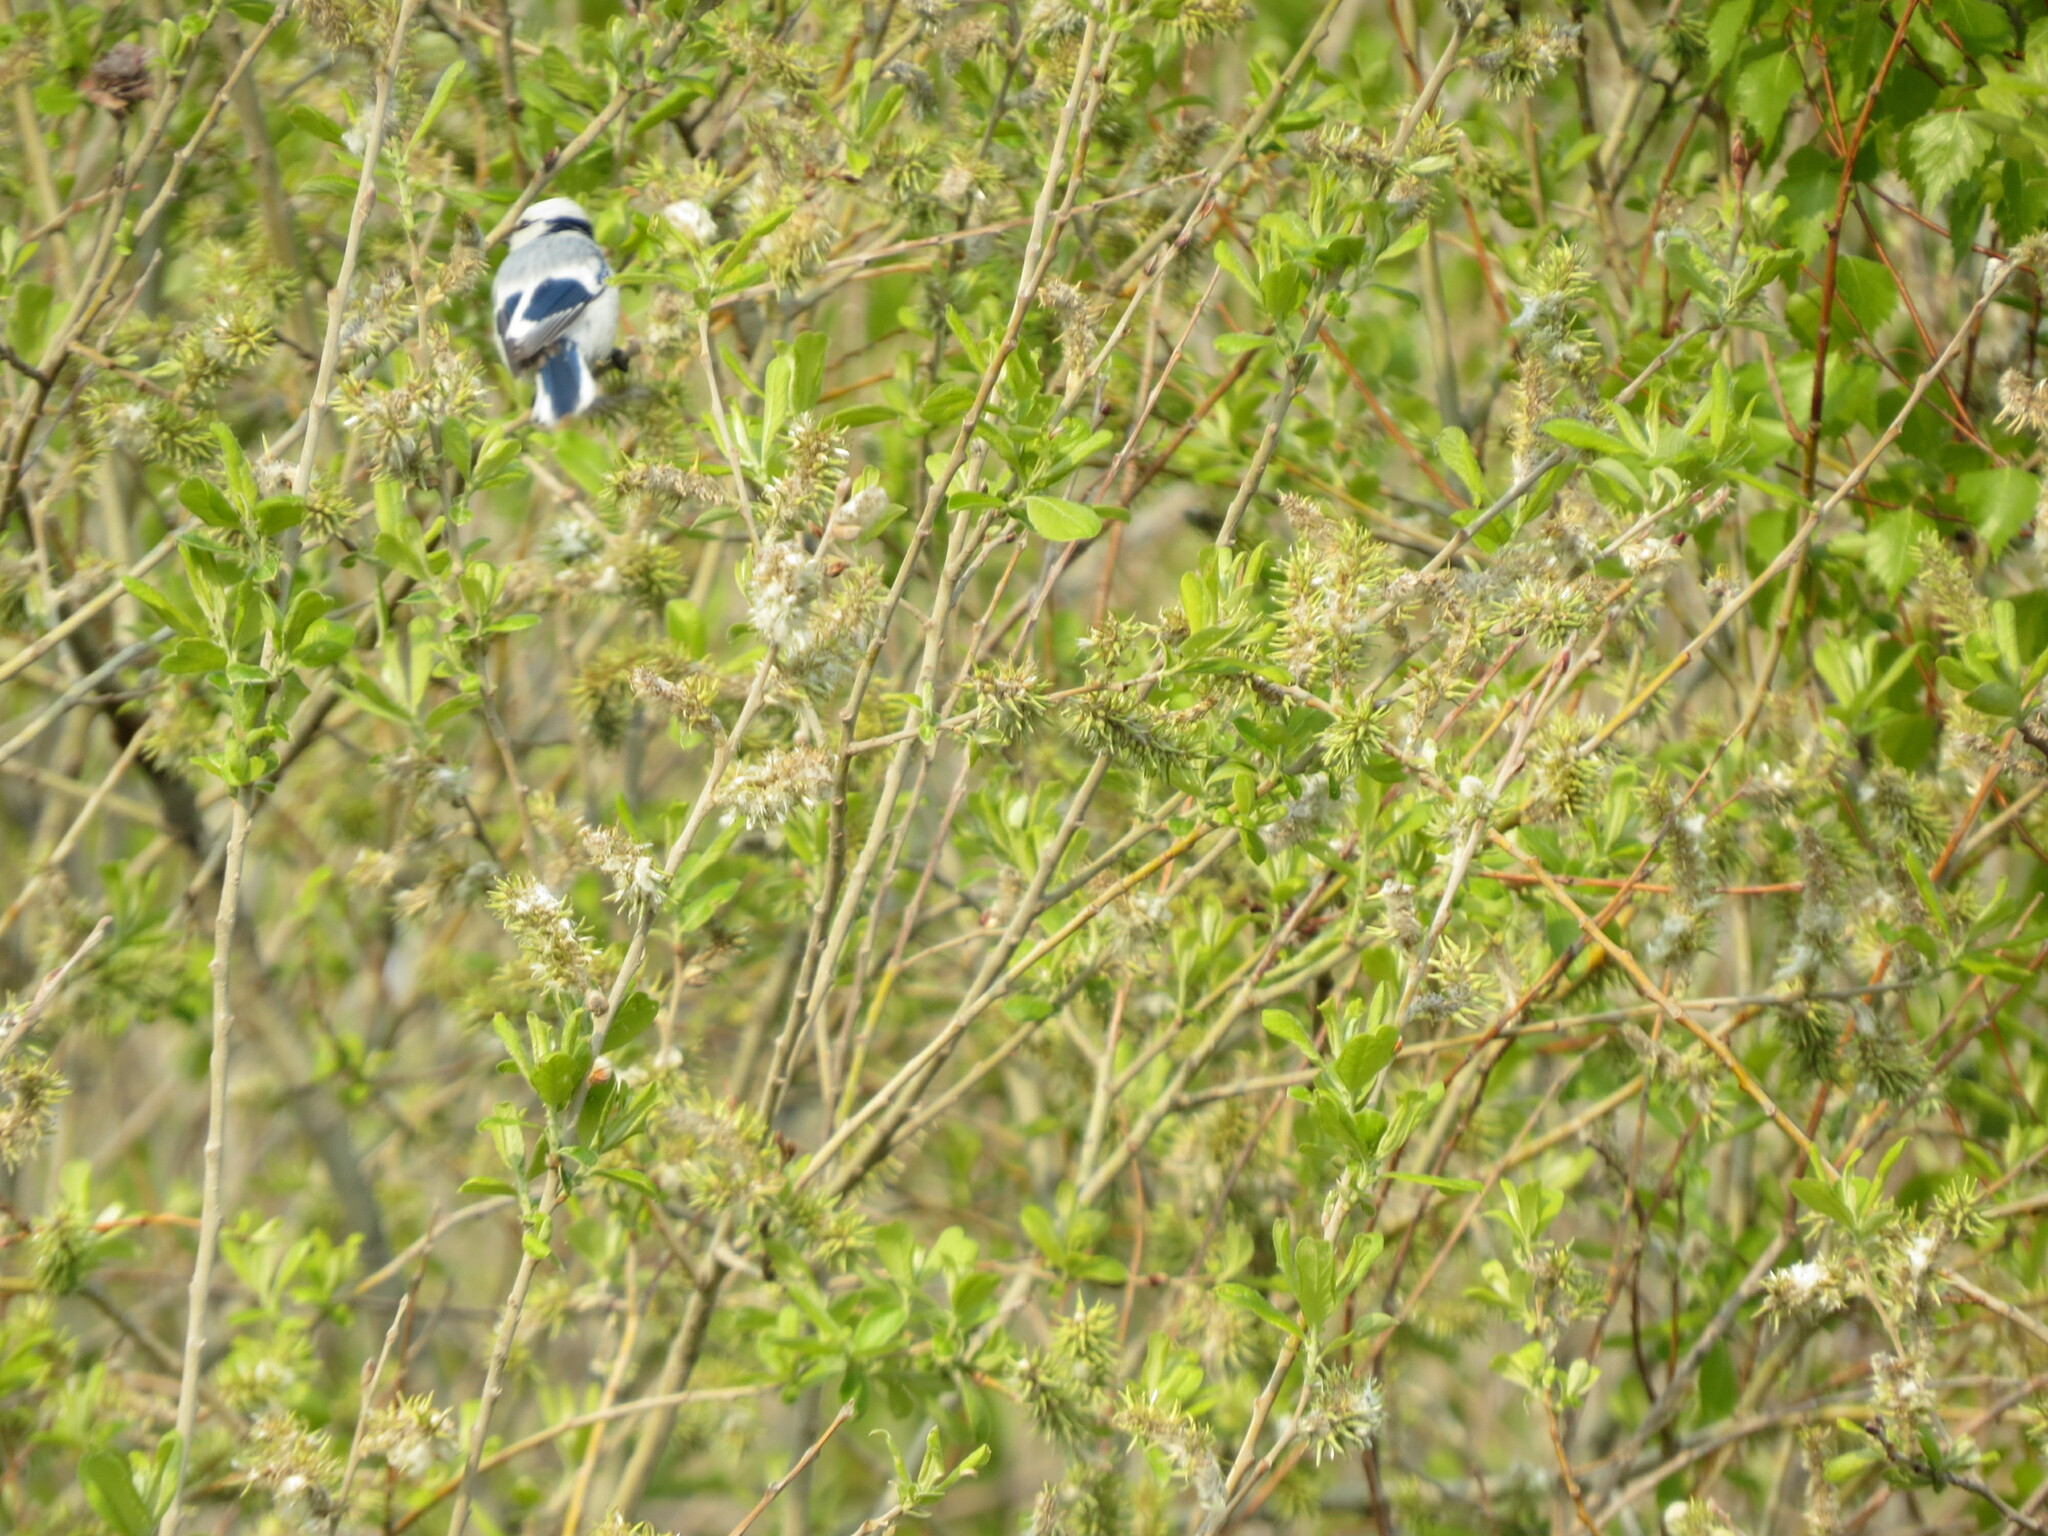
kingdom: Animalia
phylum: Chordata
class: Aves
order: Passeriformes
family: Paridae
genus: Cyanistes
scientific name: Cyanistes cyanus
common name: Azure tit
